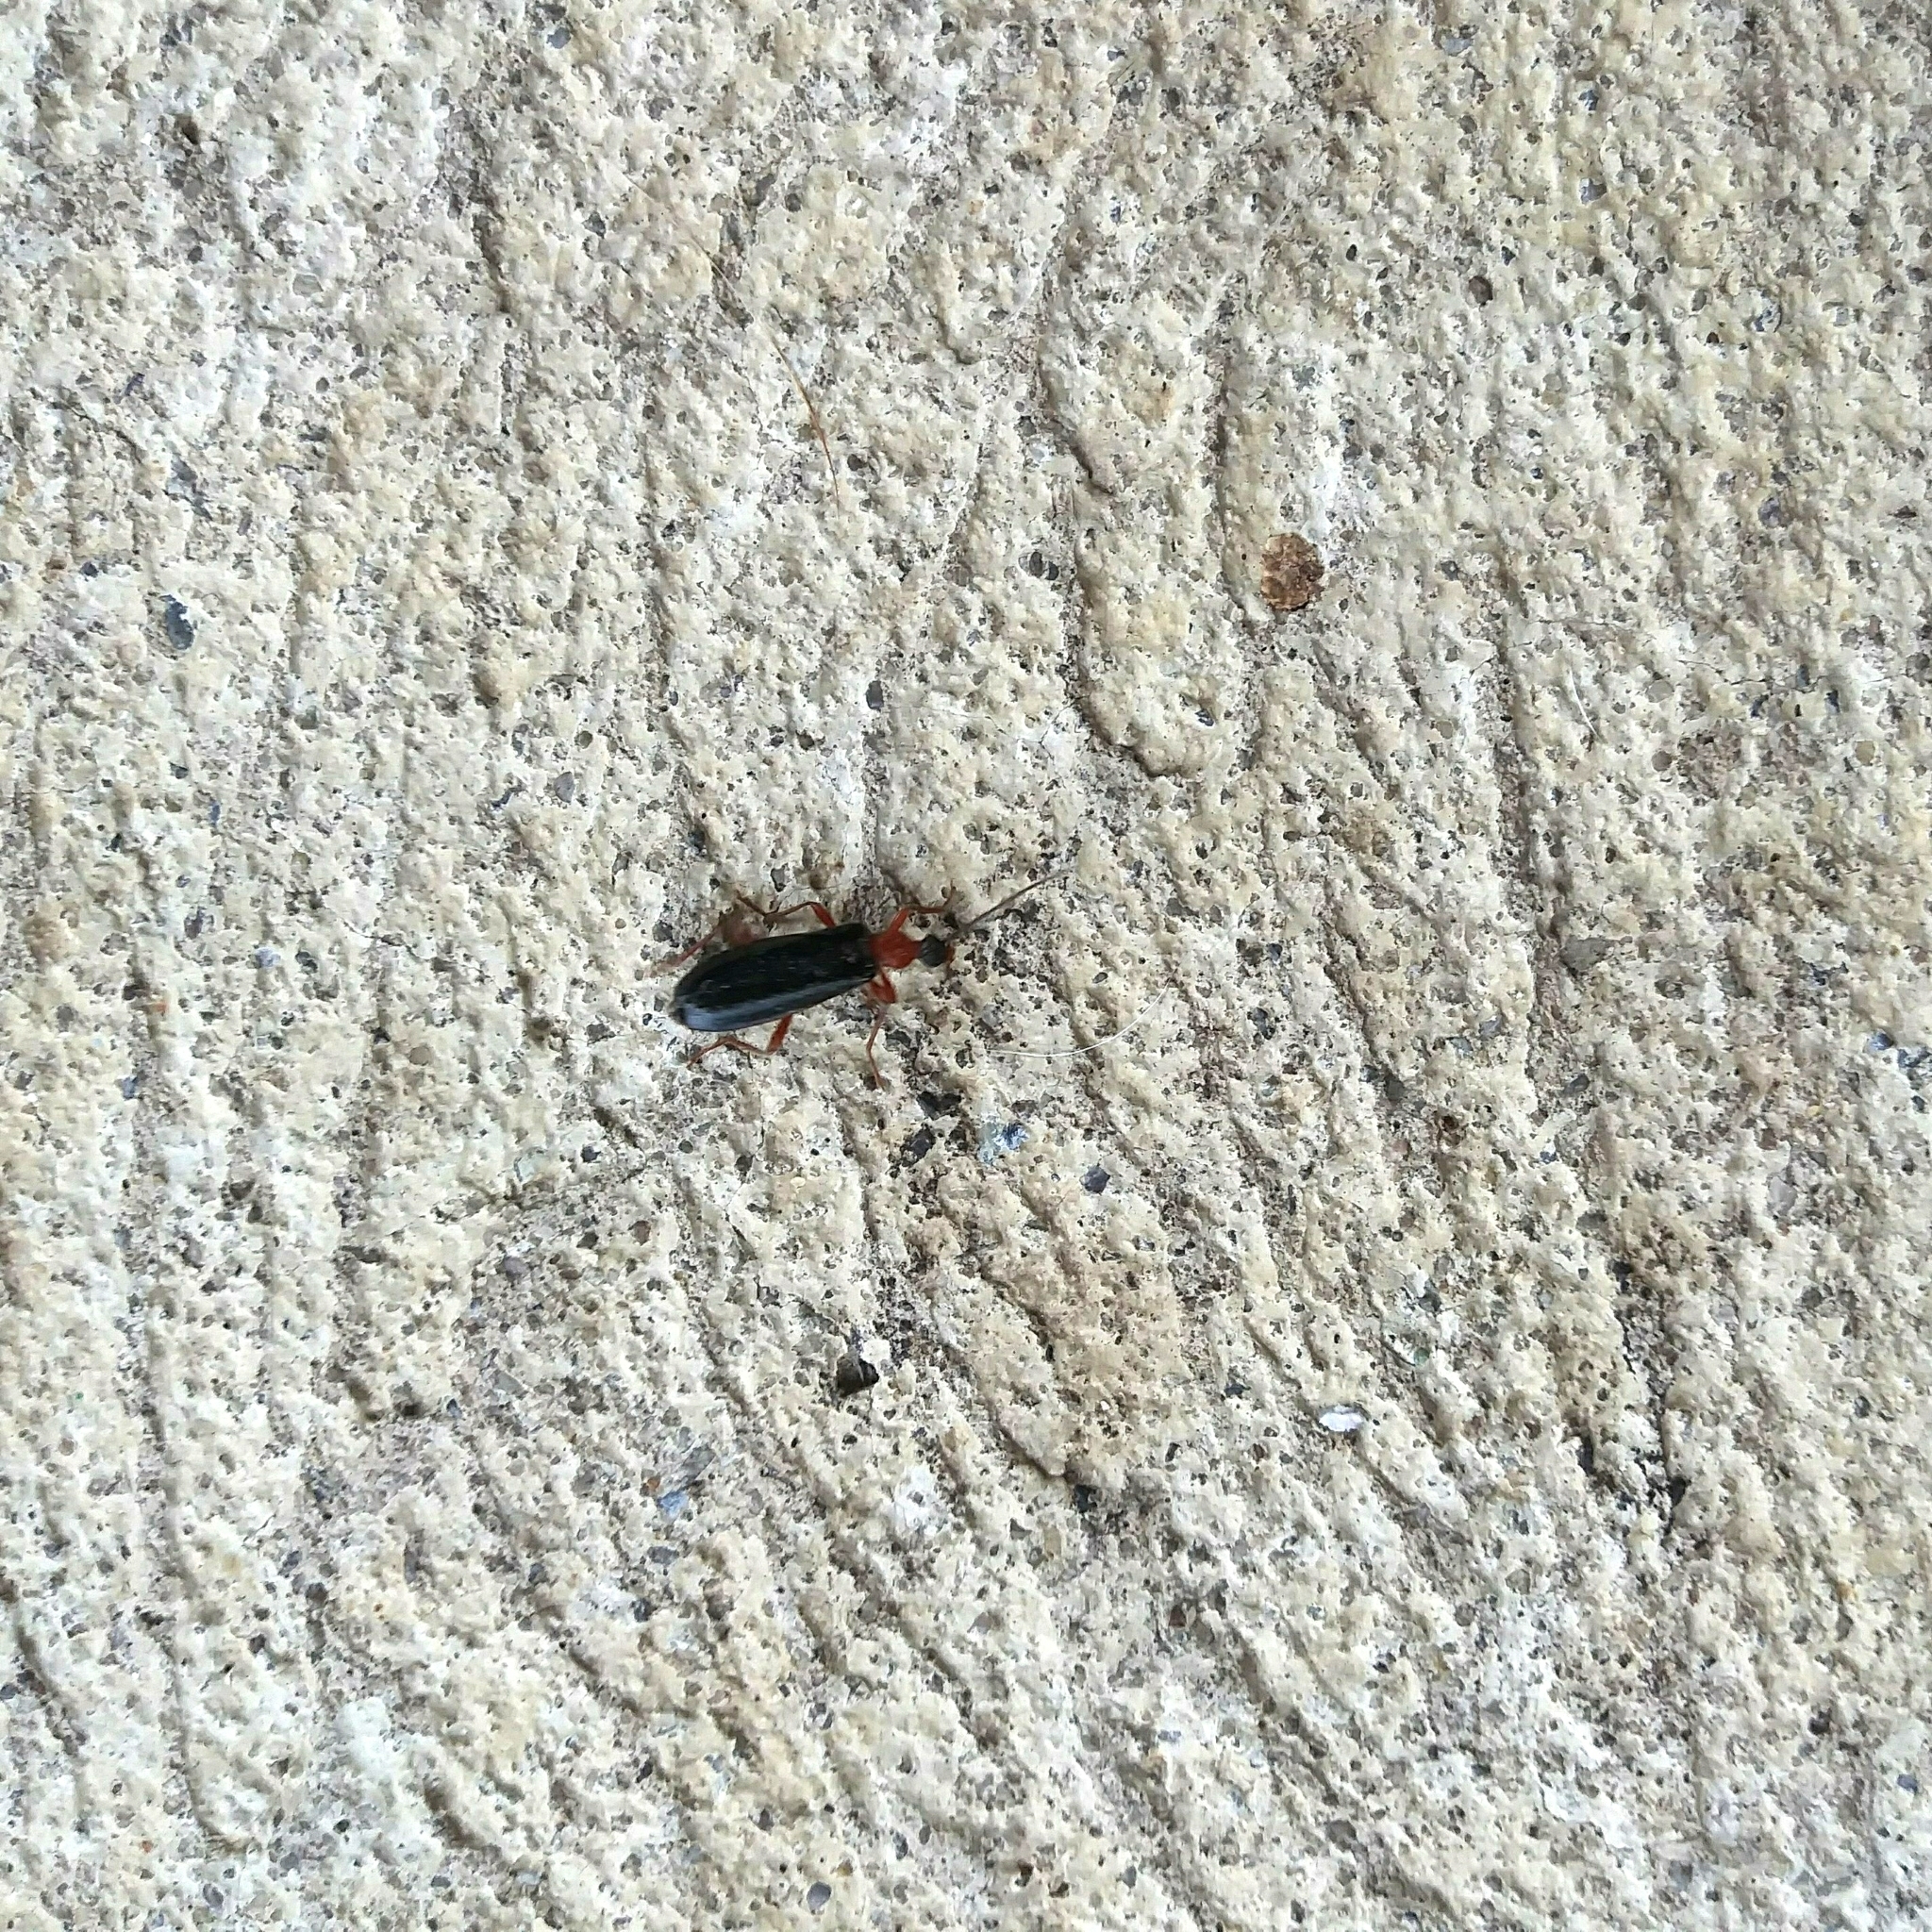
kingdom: Animalia
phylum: Arthropoda
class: Insecta
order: Coleoptera
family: Pyrochroidae
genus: Dendroides
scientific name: Dendroides canadensis
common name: Canada fire-colored beetle
